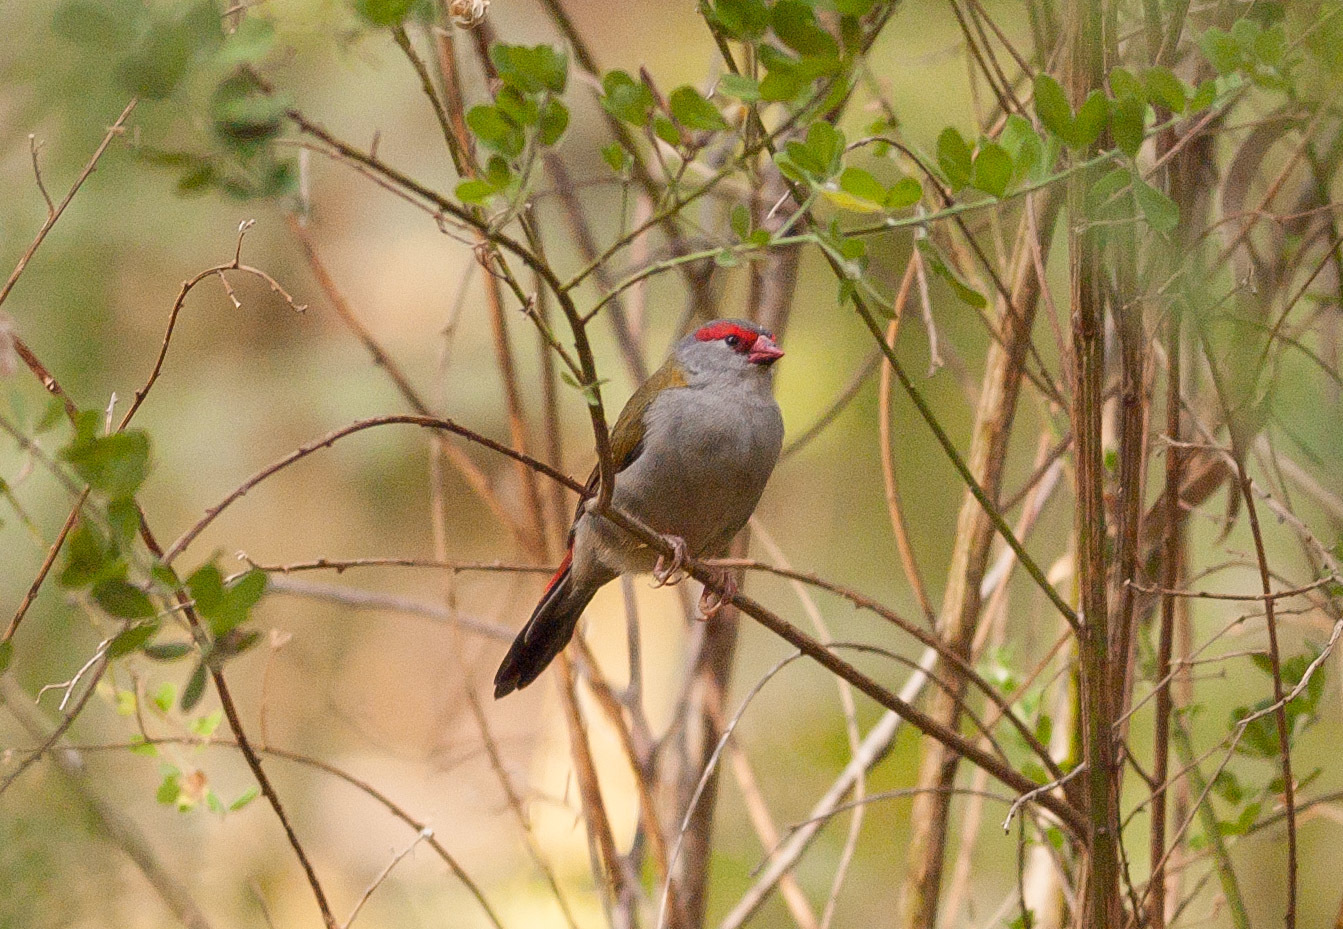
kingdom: Animalia
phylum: Chordata
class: Aves
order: Passeriformes
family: Estrildidae
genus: Neochmia
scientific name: Neochmia temporalis
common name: Red-browed finch
